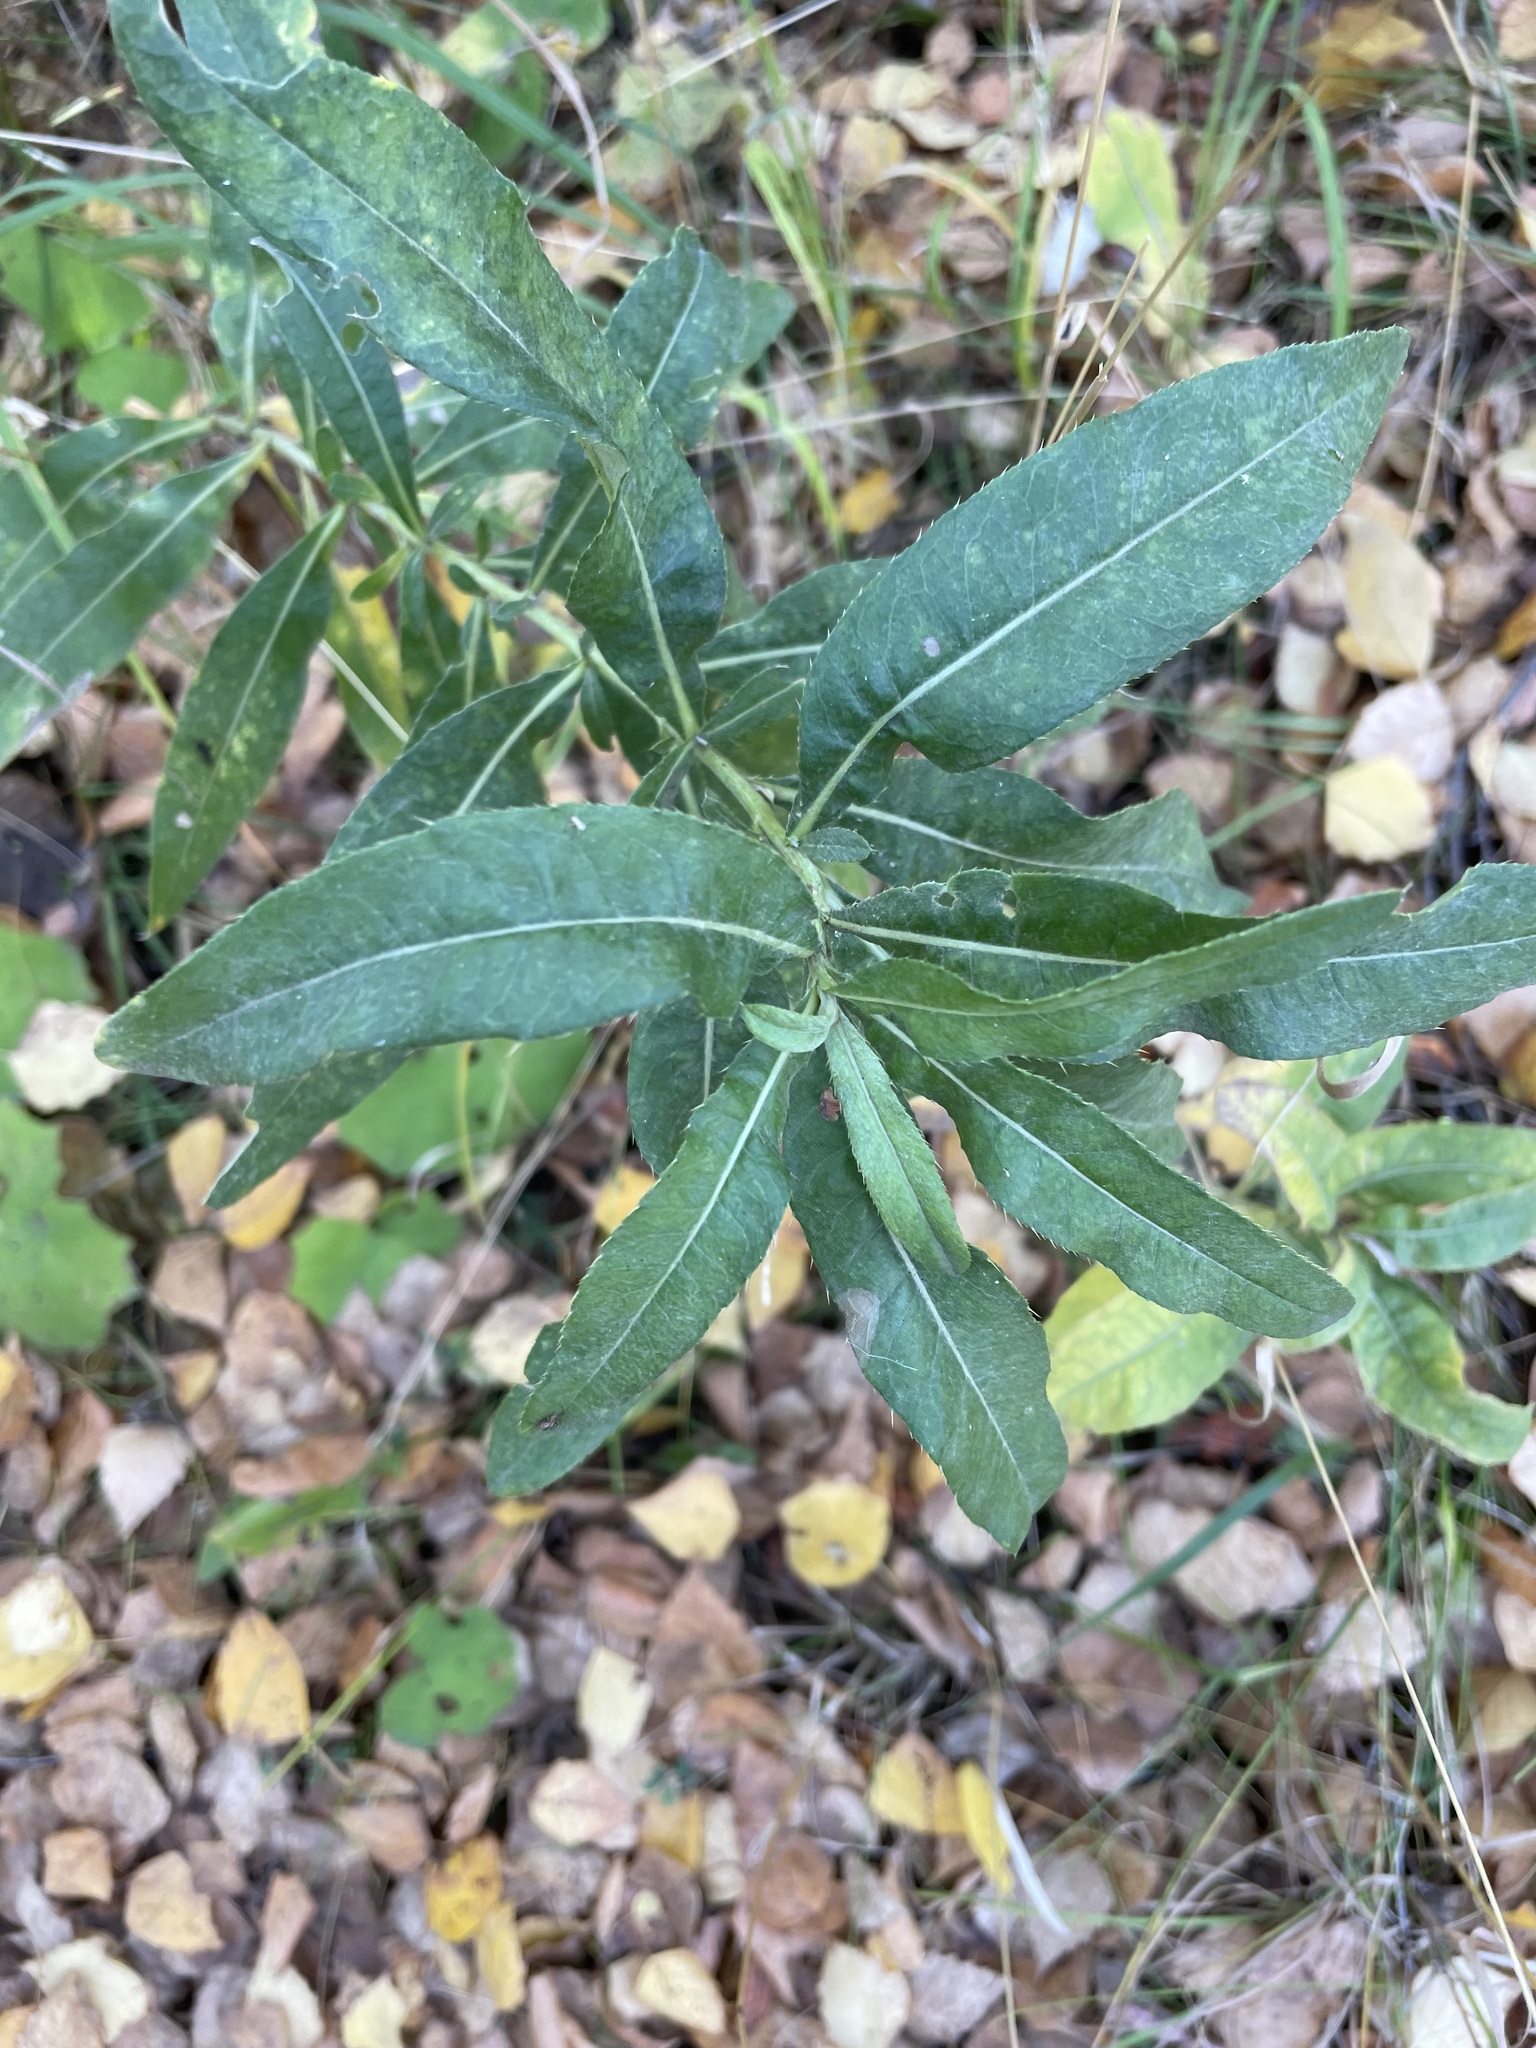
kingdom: Plantae
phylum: Tracheophyta
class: Magnoliopsida
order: Asterales
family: Asteraceae
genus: Cirsium
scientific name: Cirsium arvense
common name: Creeping thistle
